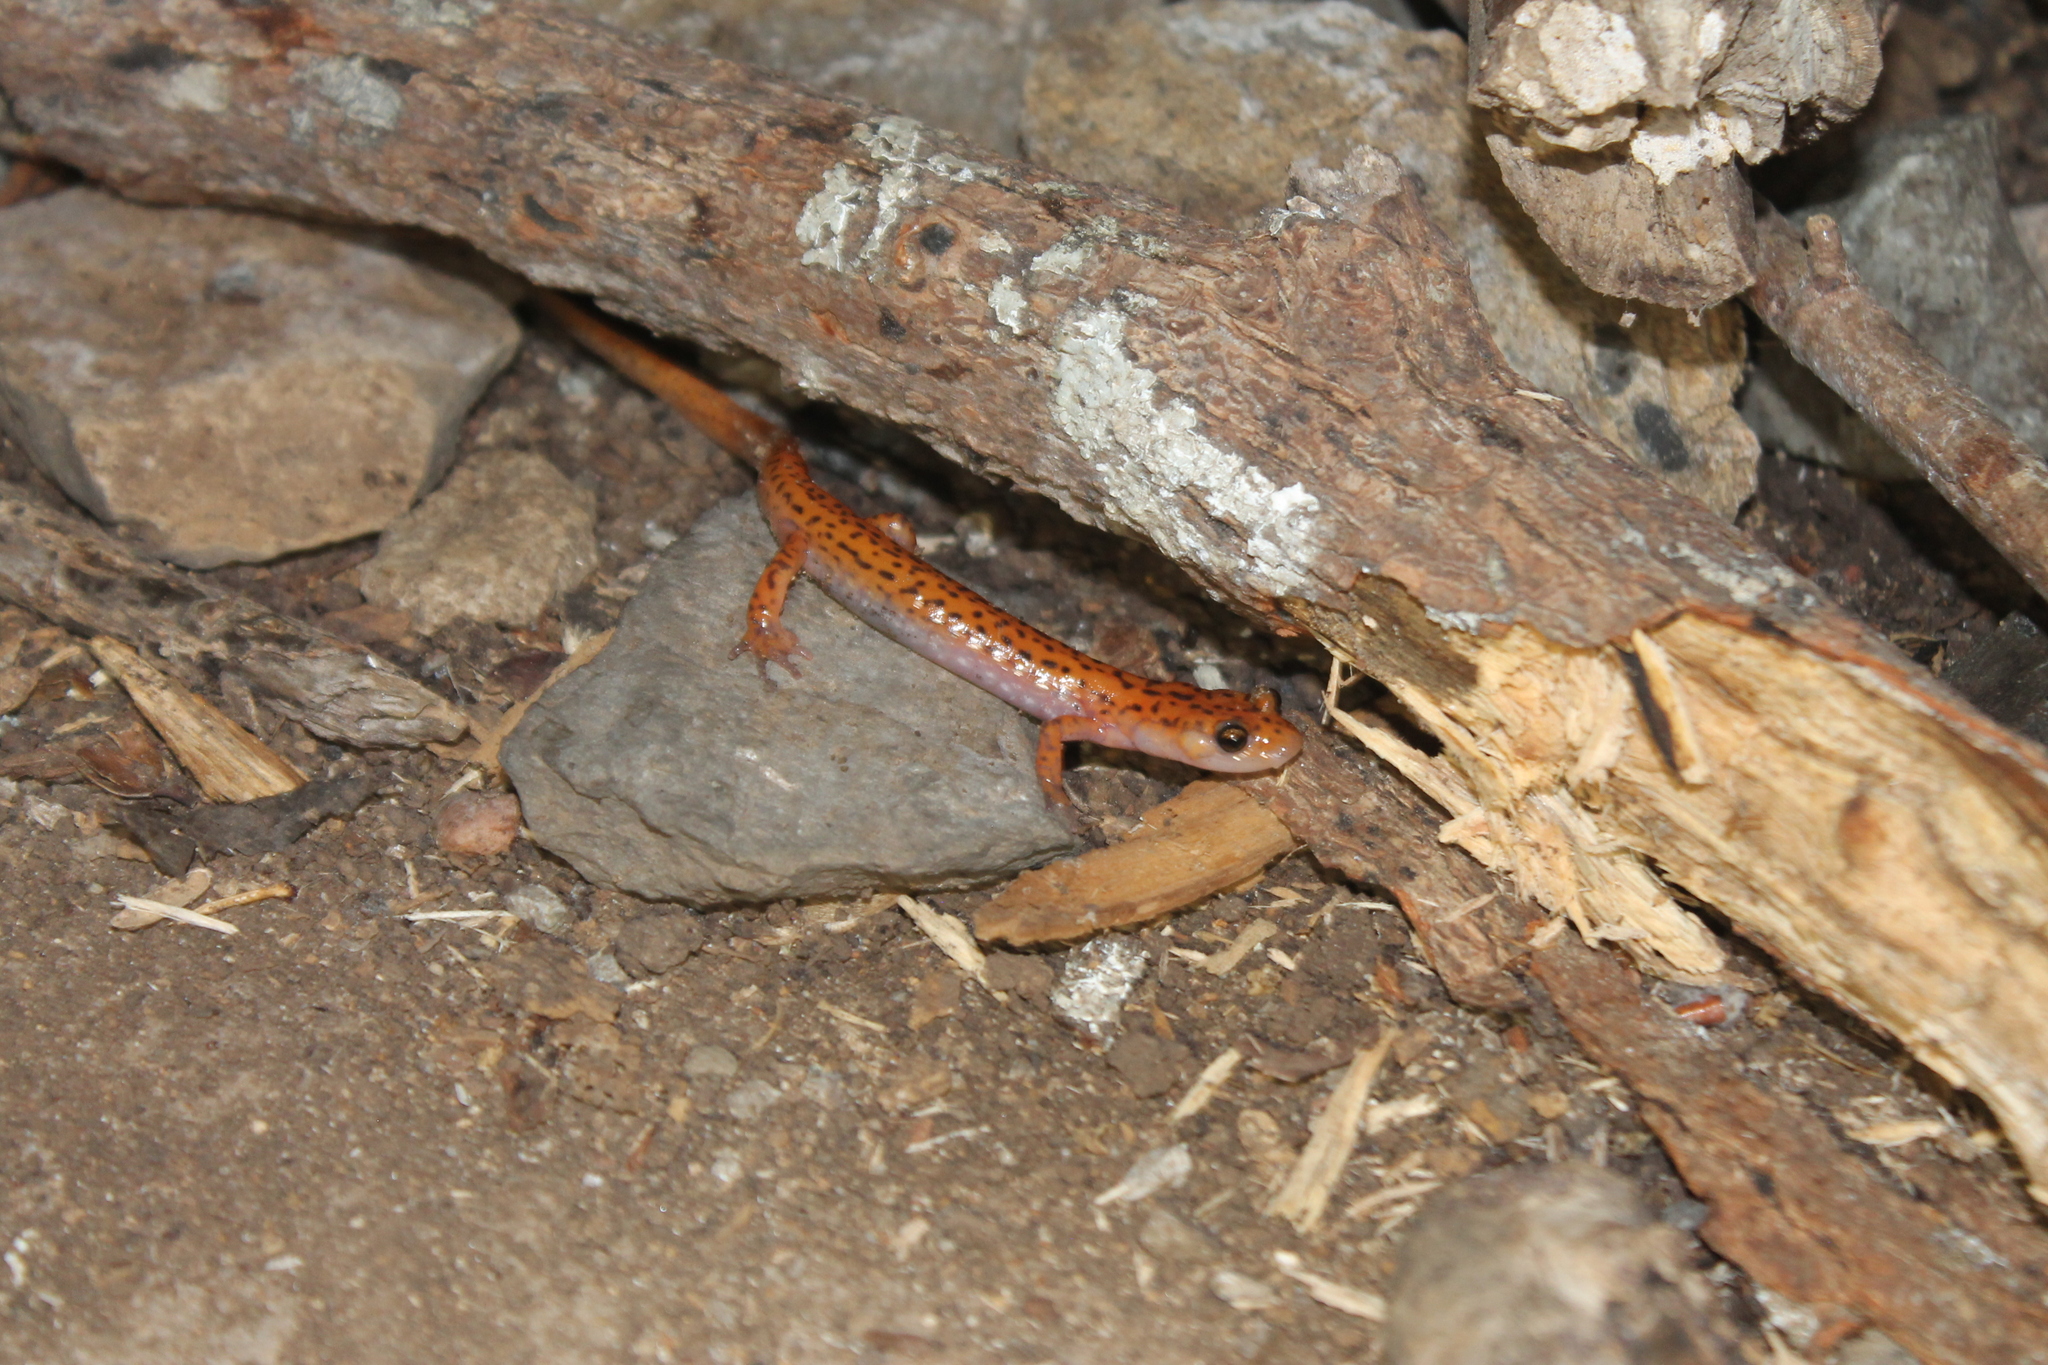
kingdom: Animalia
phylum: Chordata
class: Amphibia
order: Caudata
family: Plethodontidae
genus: Eurycea
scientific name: Eurycea lucifuga
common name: Cave salamander
